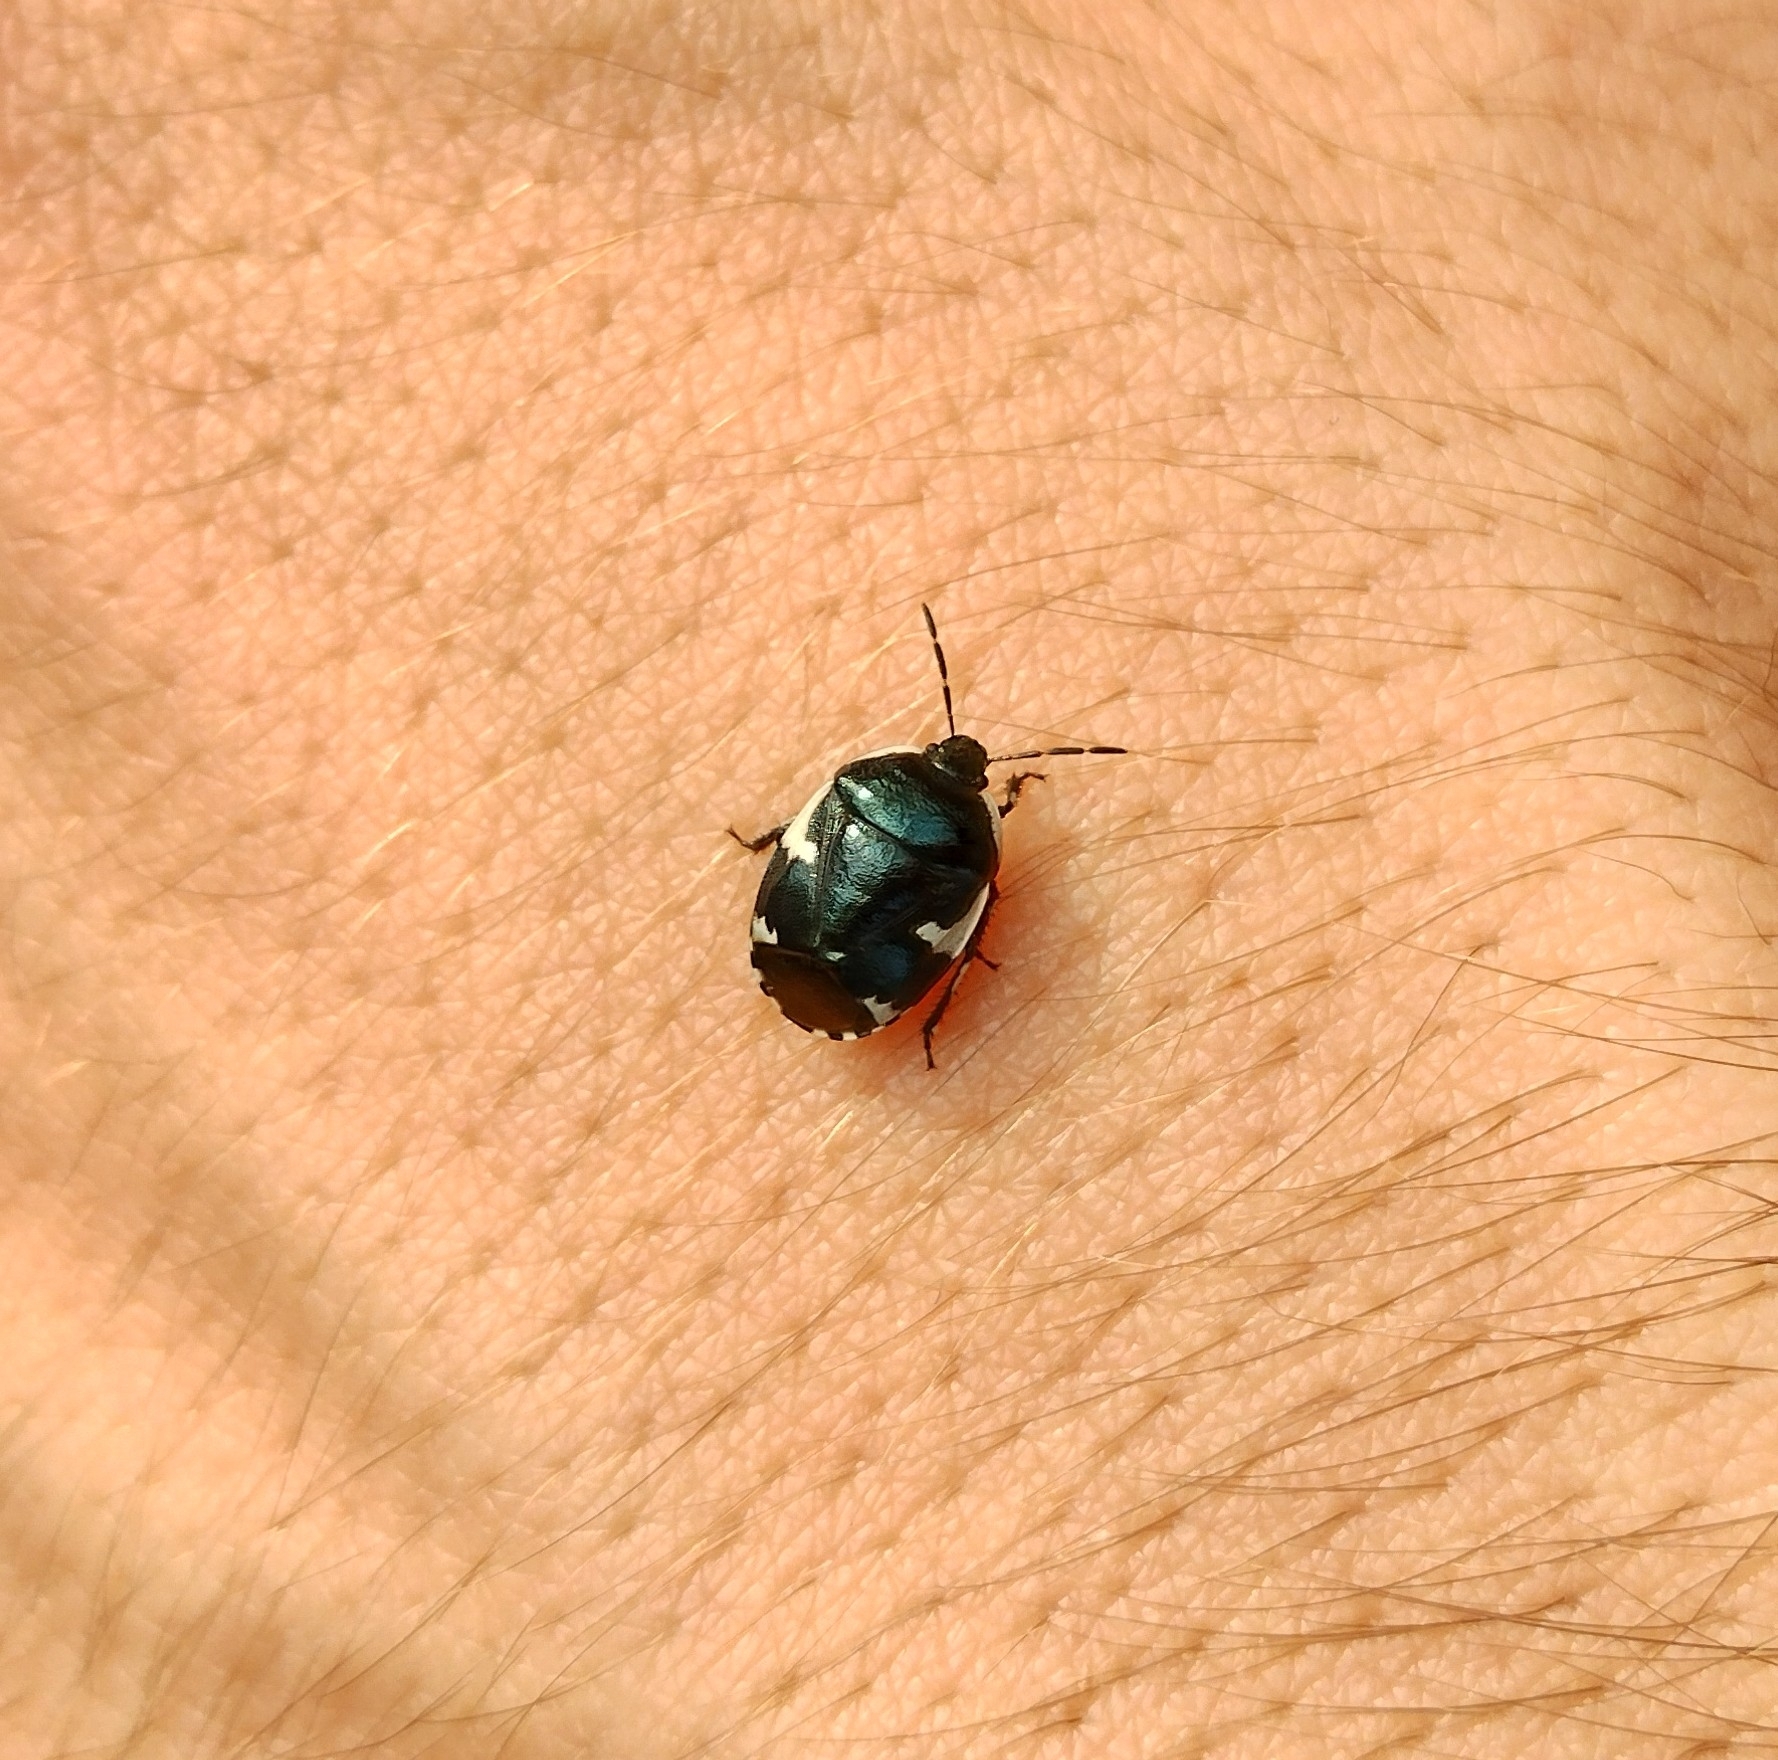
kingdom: Animalia
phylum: Arthropoda
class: Insecta
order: Hemiptera
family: Cydnidae
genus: Tritomegas
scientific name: Tritomegas sexmaculatus
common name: Rambur's pied shieldbug
